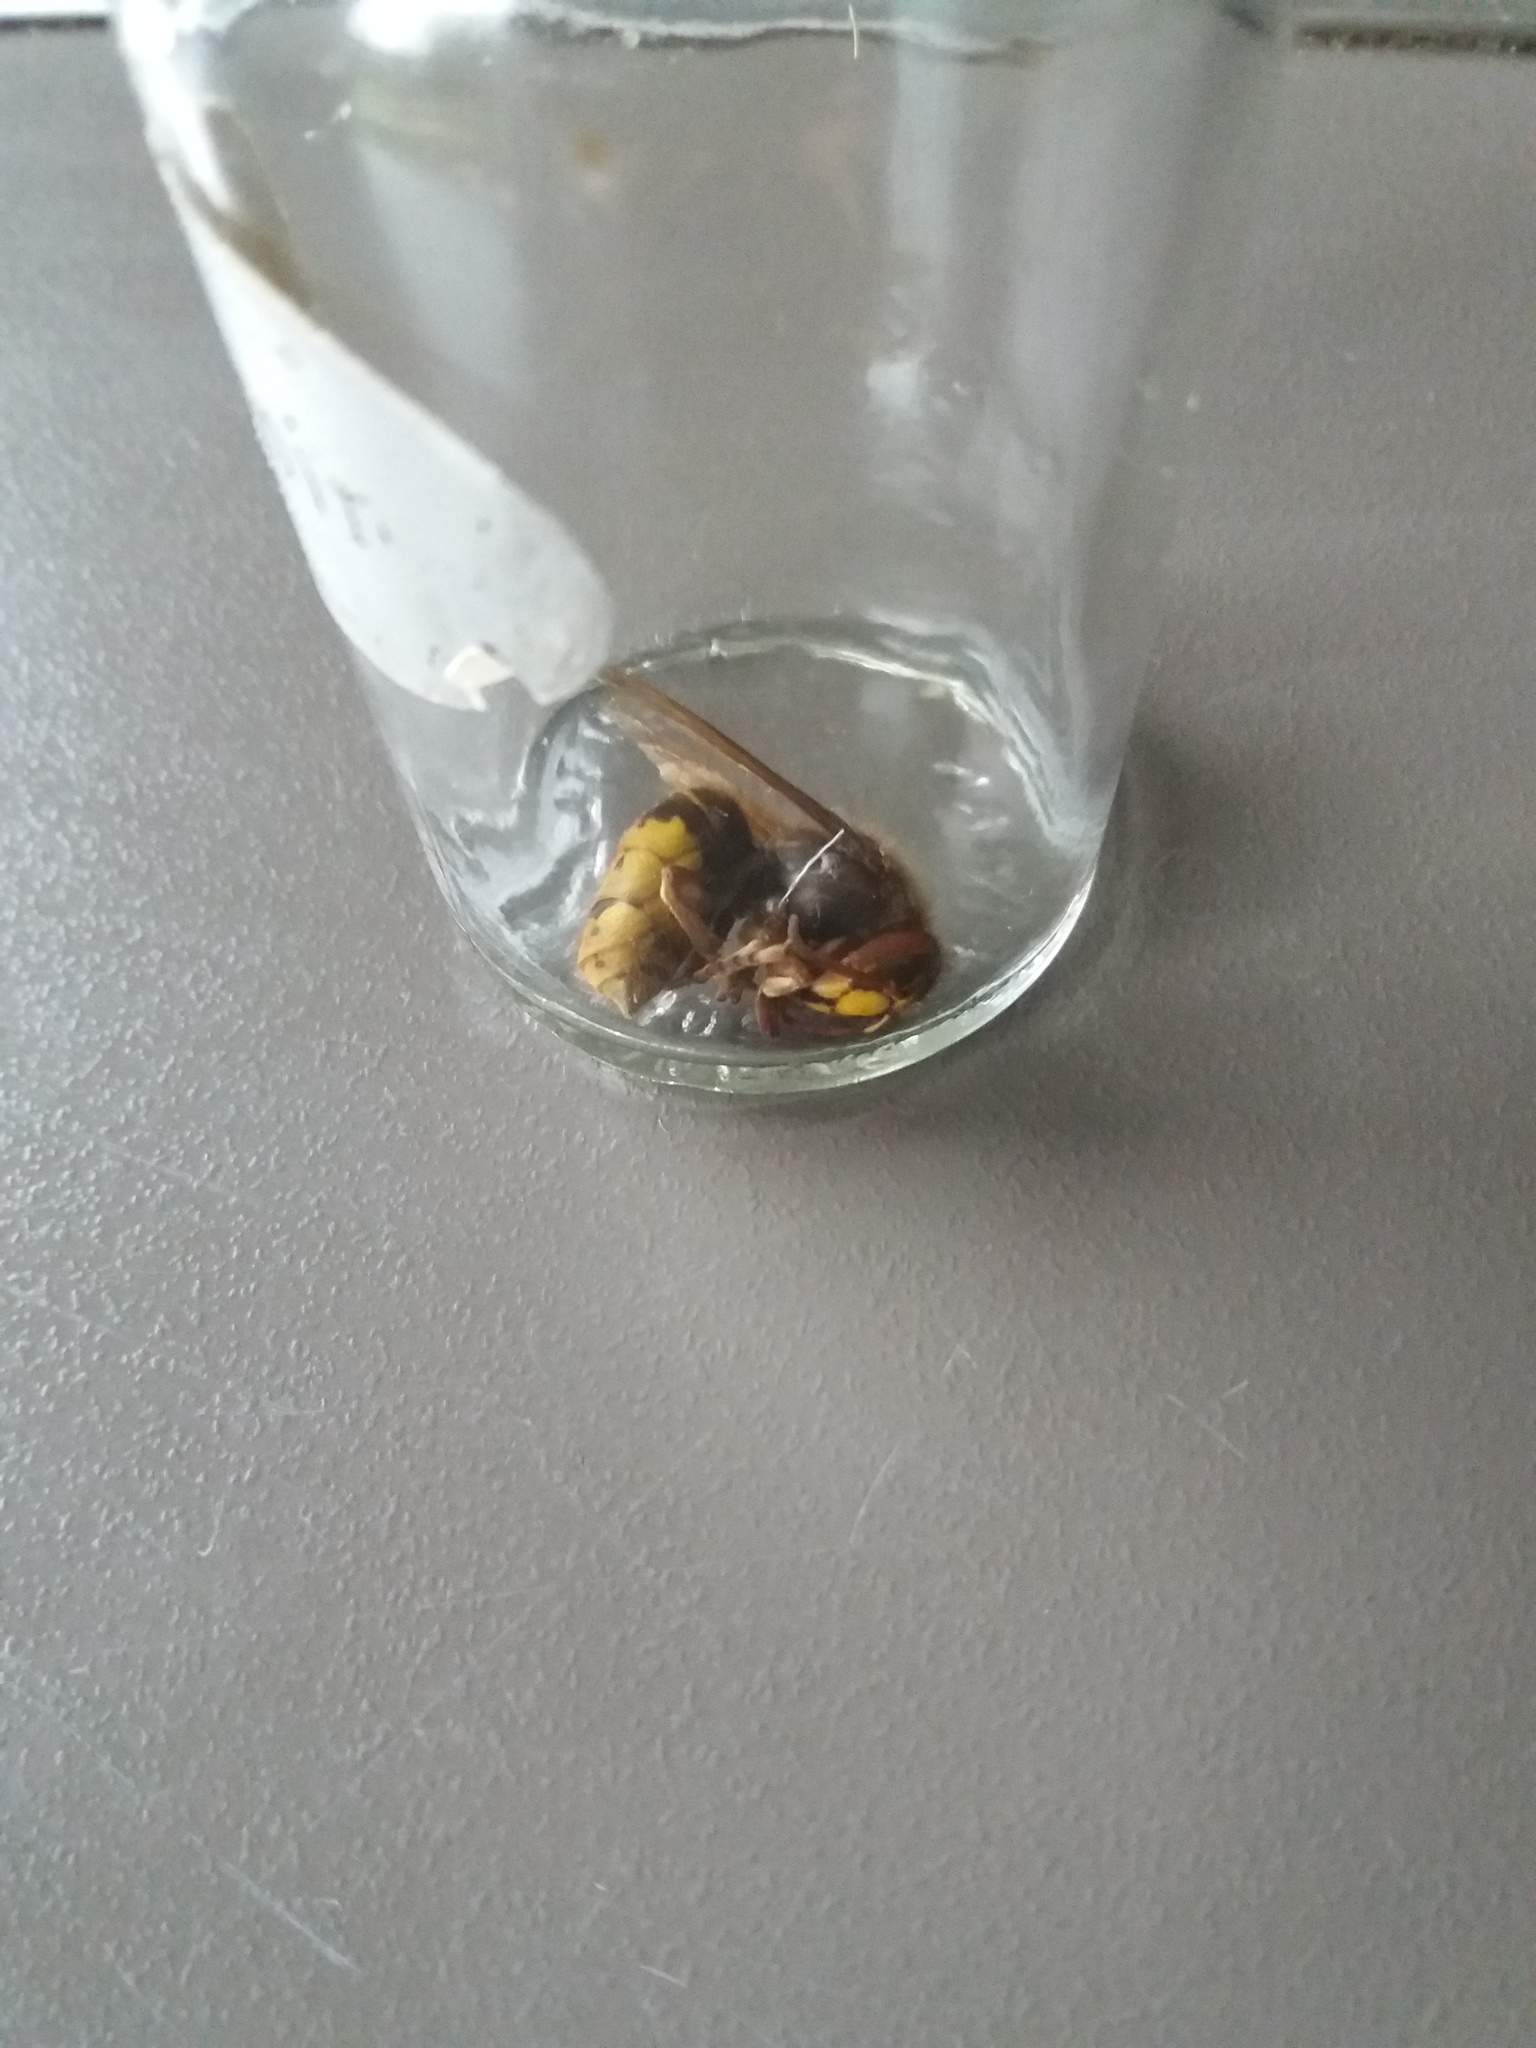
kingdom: Animalia
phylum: Arthropoda
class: Insecta
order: Hymenoptera
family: Vespidae
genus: Vespa
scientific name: Vespa crabro
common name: Hornet
